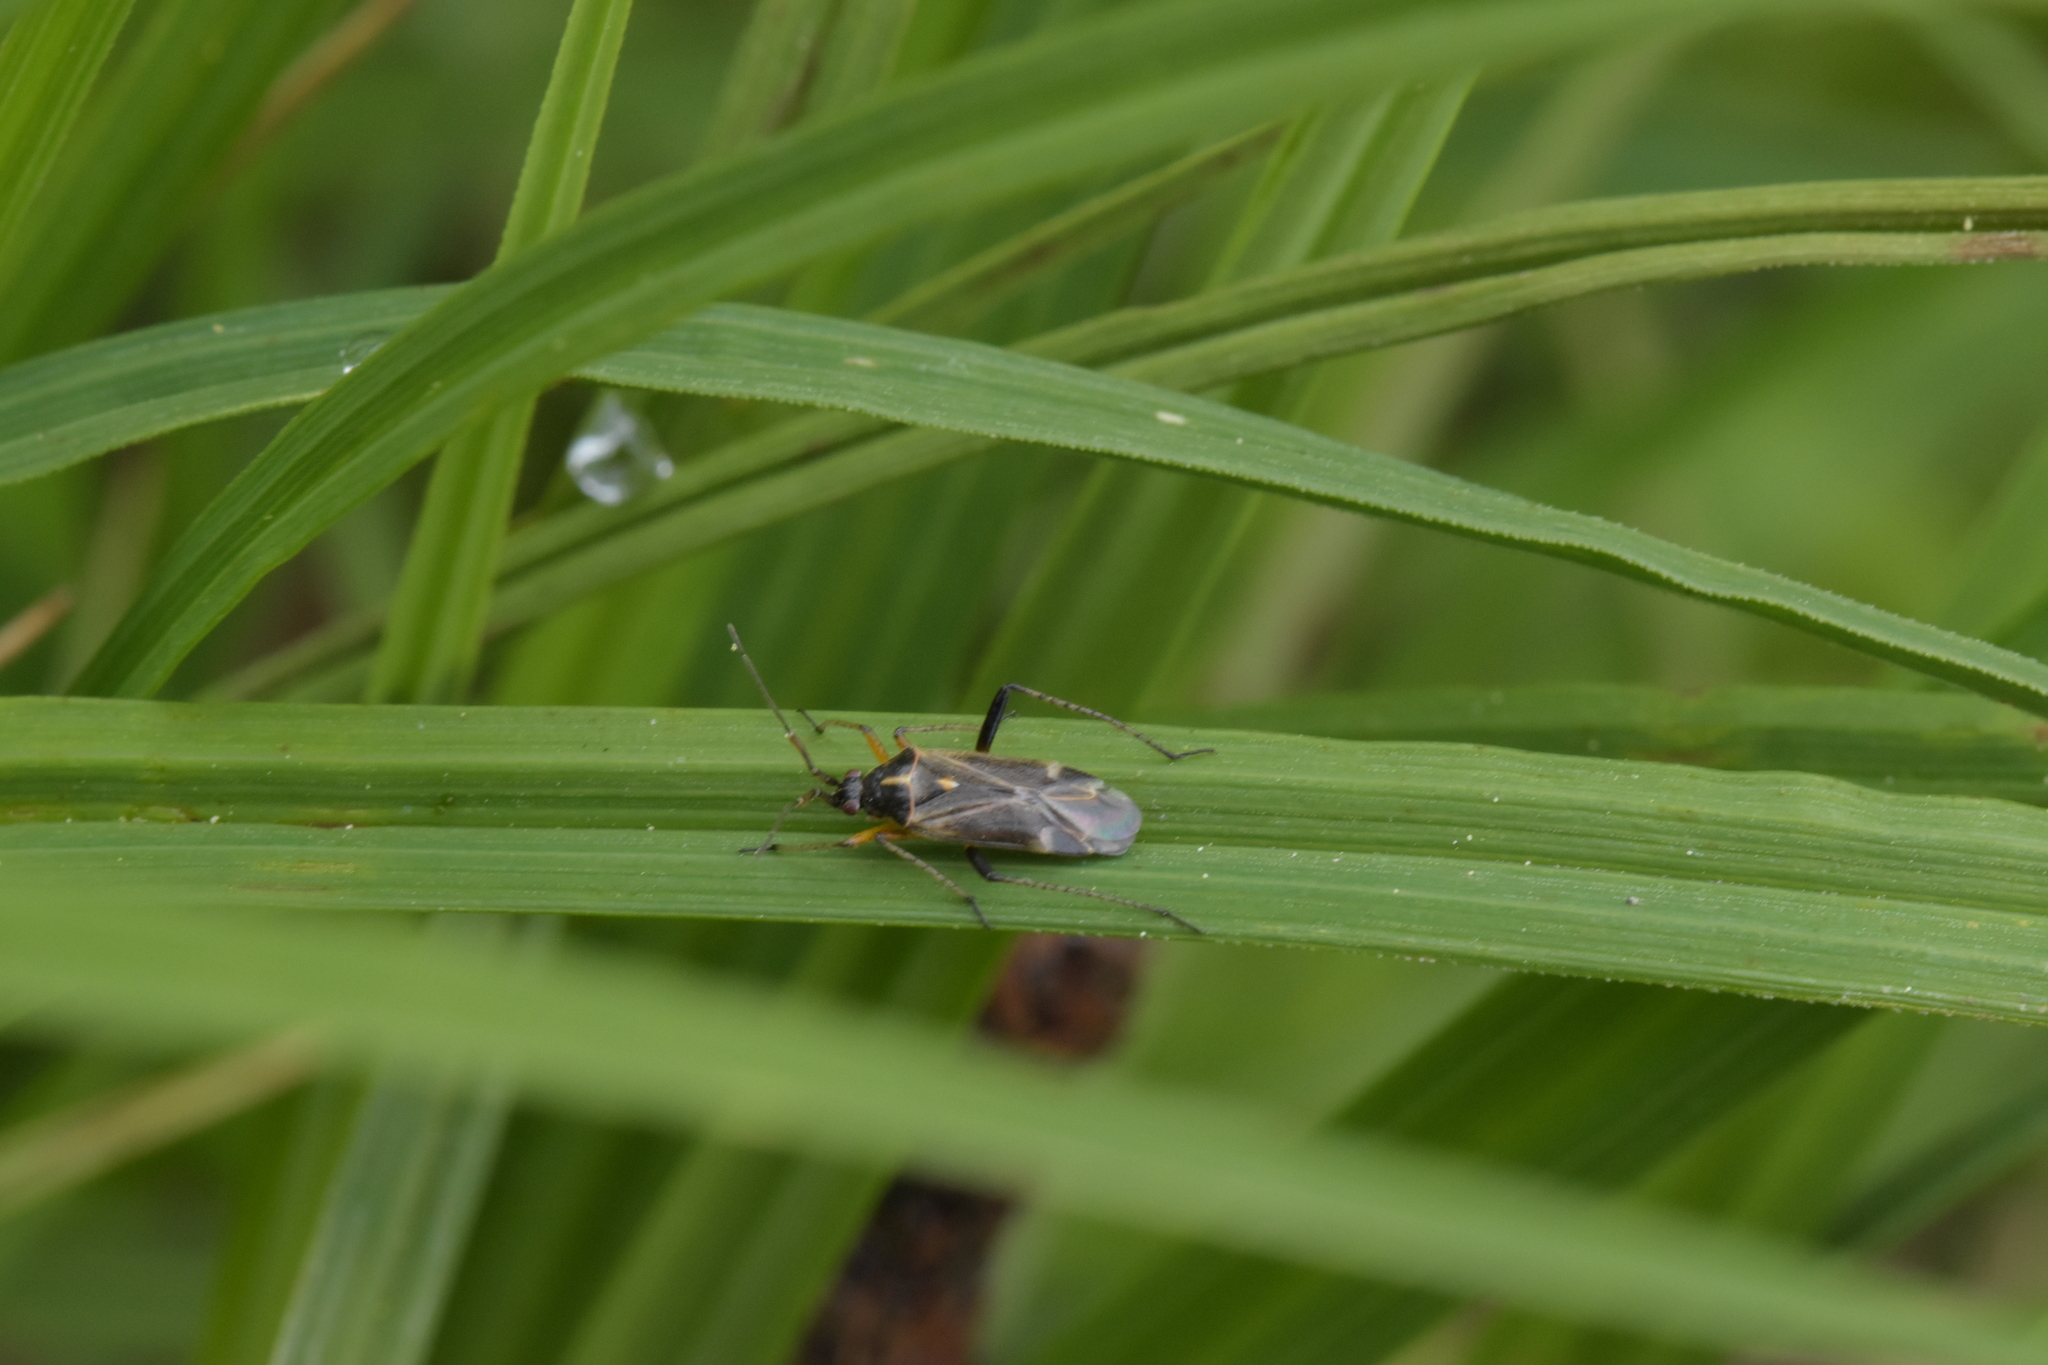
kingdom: Animalia
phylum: Arthropoda
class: Insecta
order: Hemiptera
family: Miridae
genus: Harpocera
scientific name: Harpocera thoracica
